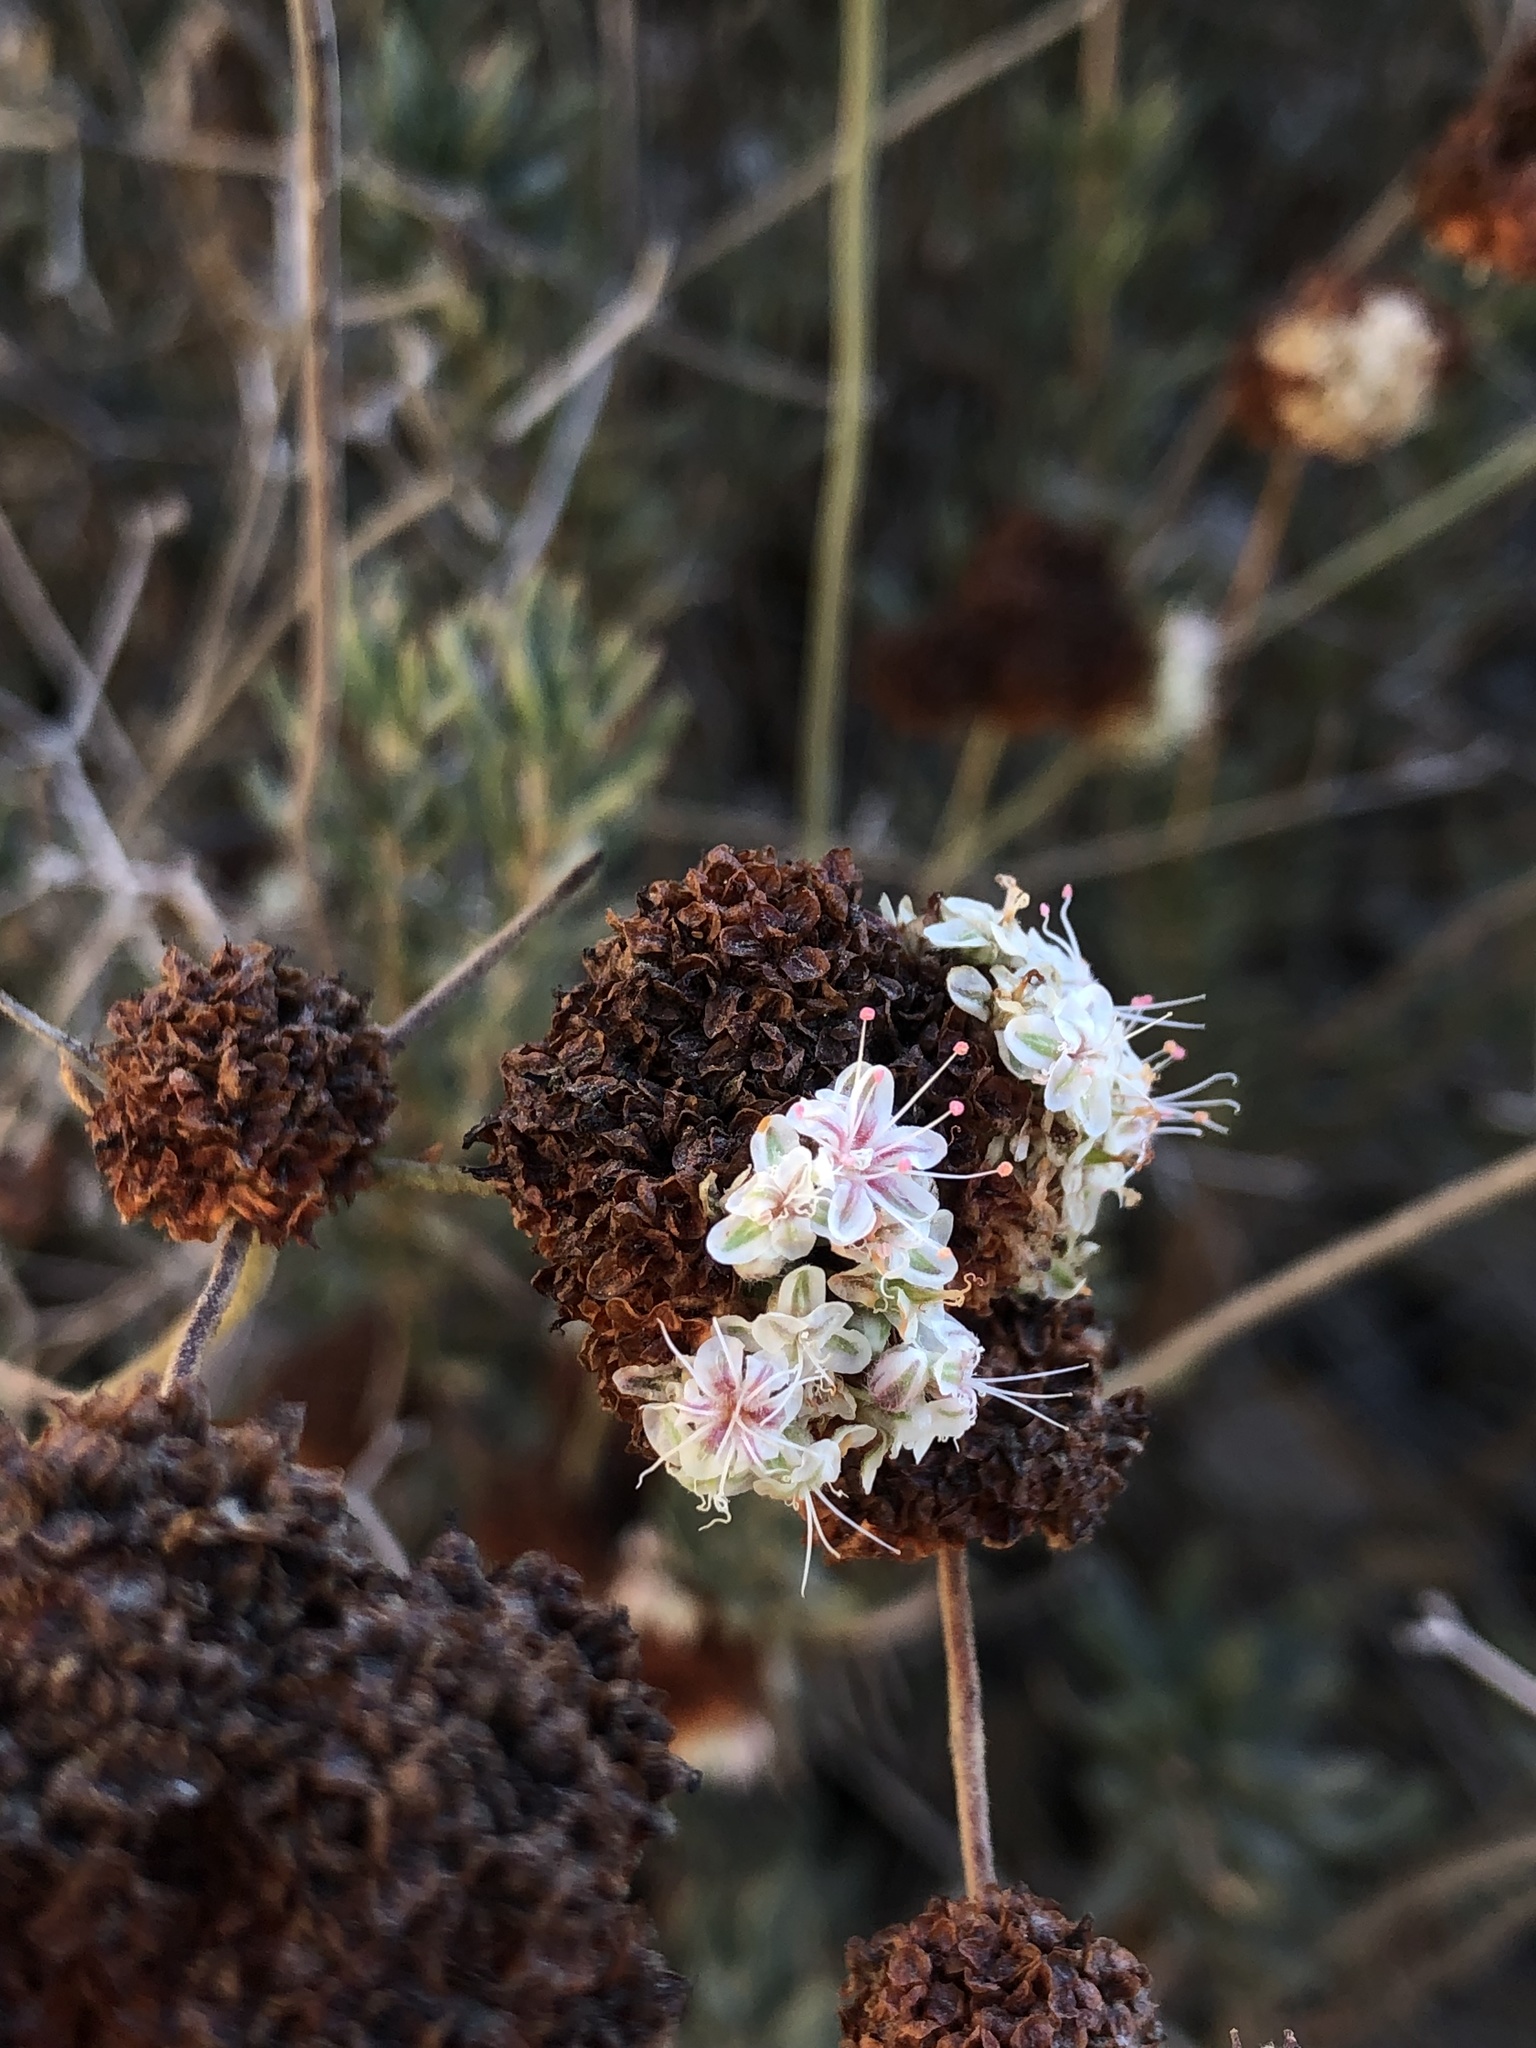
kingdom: Plantae
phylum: Tracheophyta
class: Magnoliopsida
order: Caryophyllales
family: Polygonaceae
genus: Eriogonum
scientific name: Eriogonum fasciculatum
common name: California wild buckwheat
